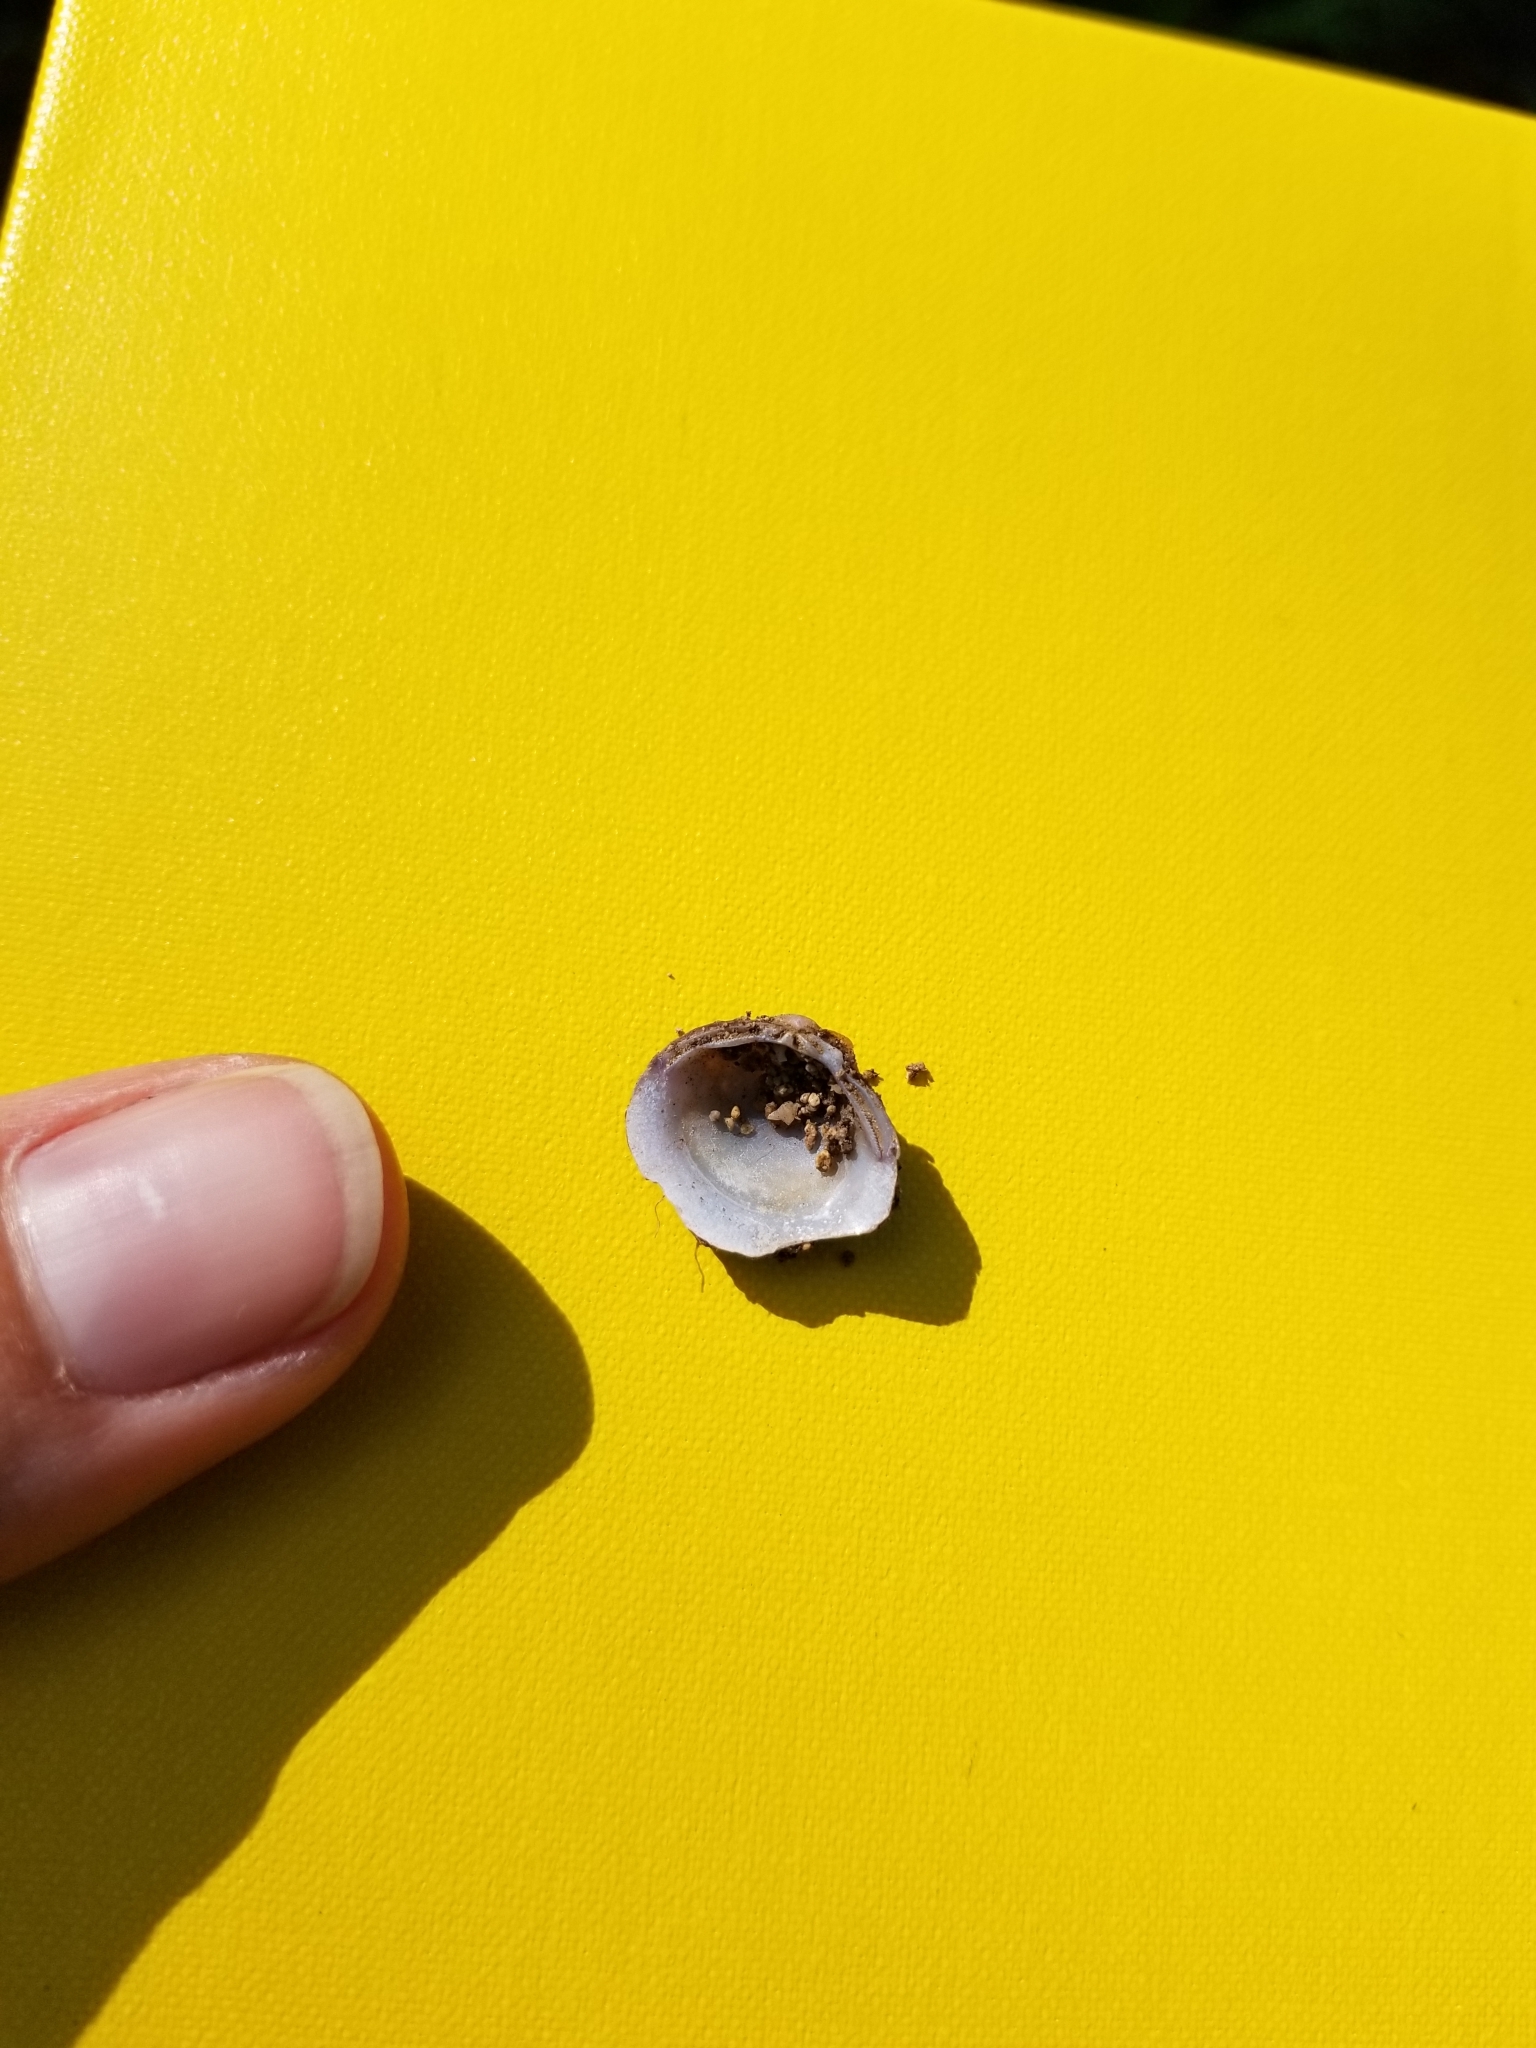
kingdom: Animalia
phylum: Mollusca
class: Bivalvia
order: Venerida
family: Cyrenidae
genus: Corbicula
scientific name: Corbicula fluminea
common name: Asian clam
